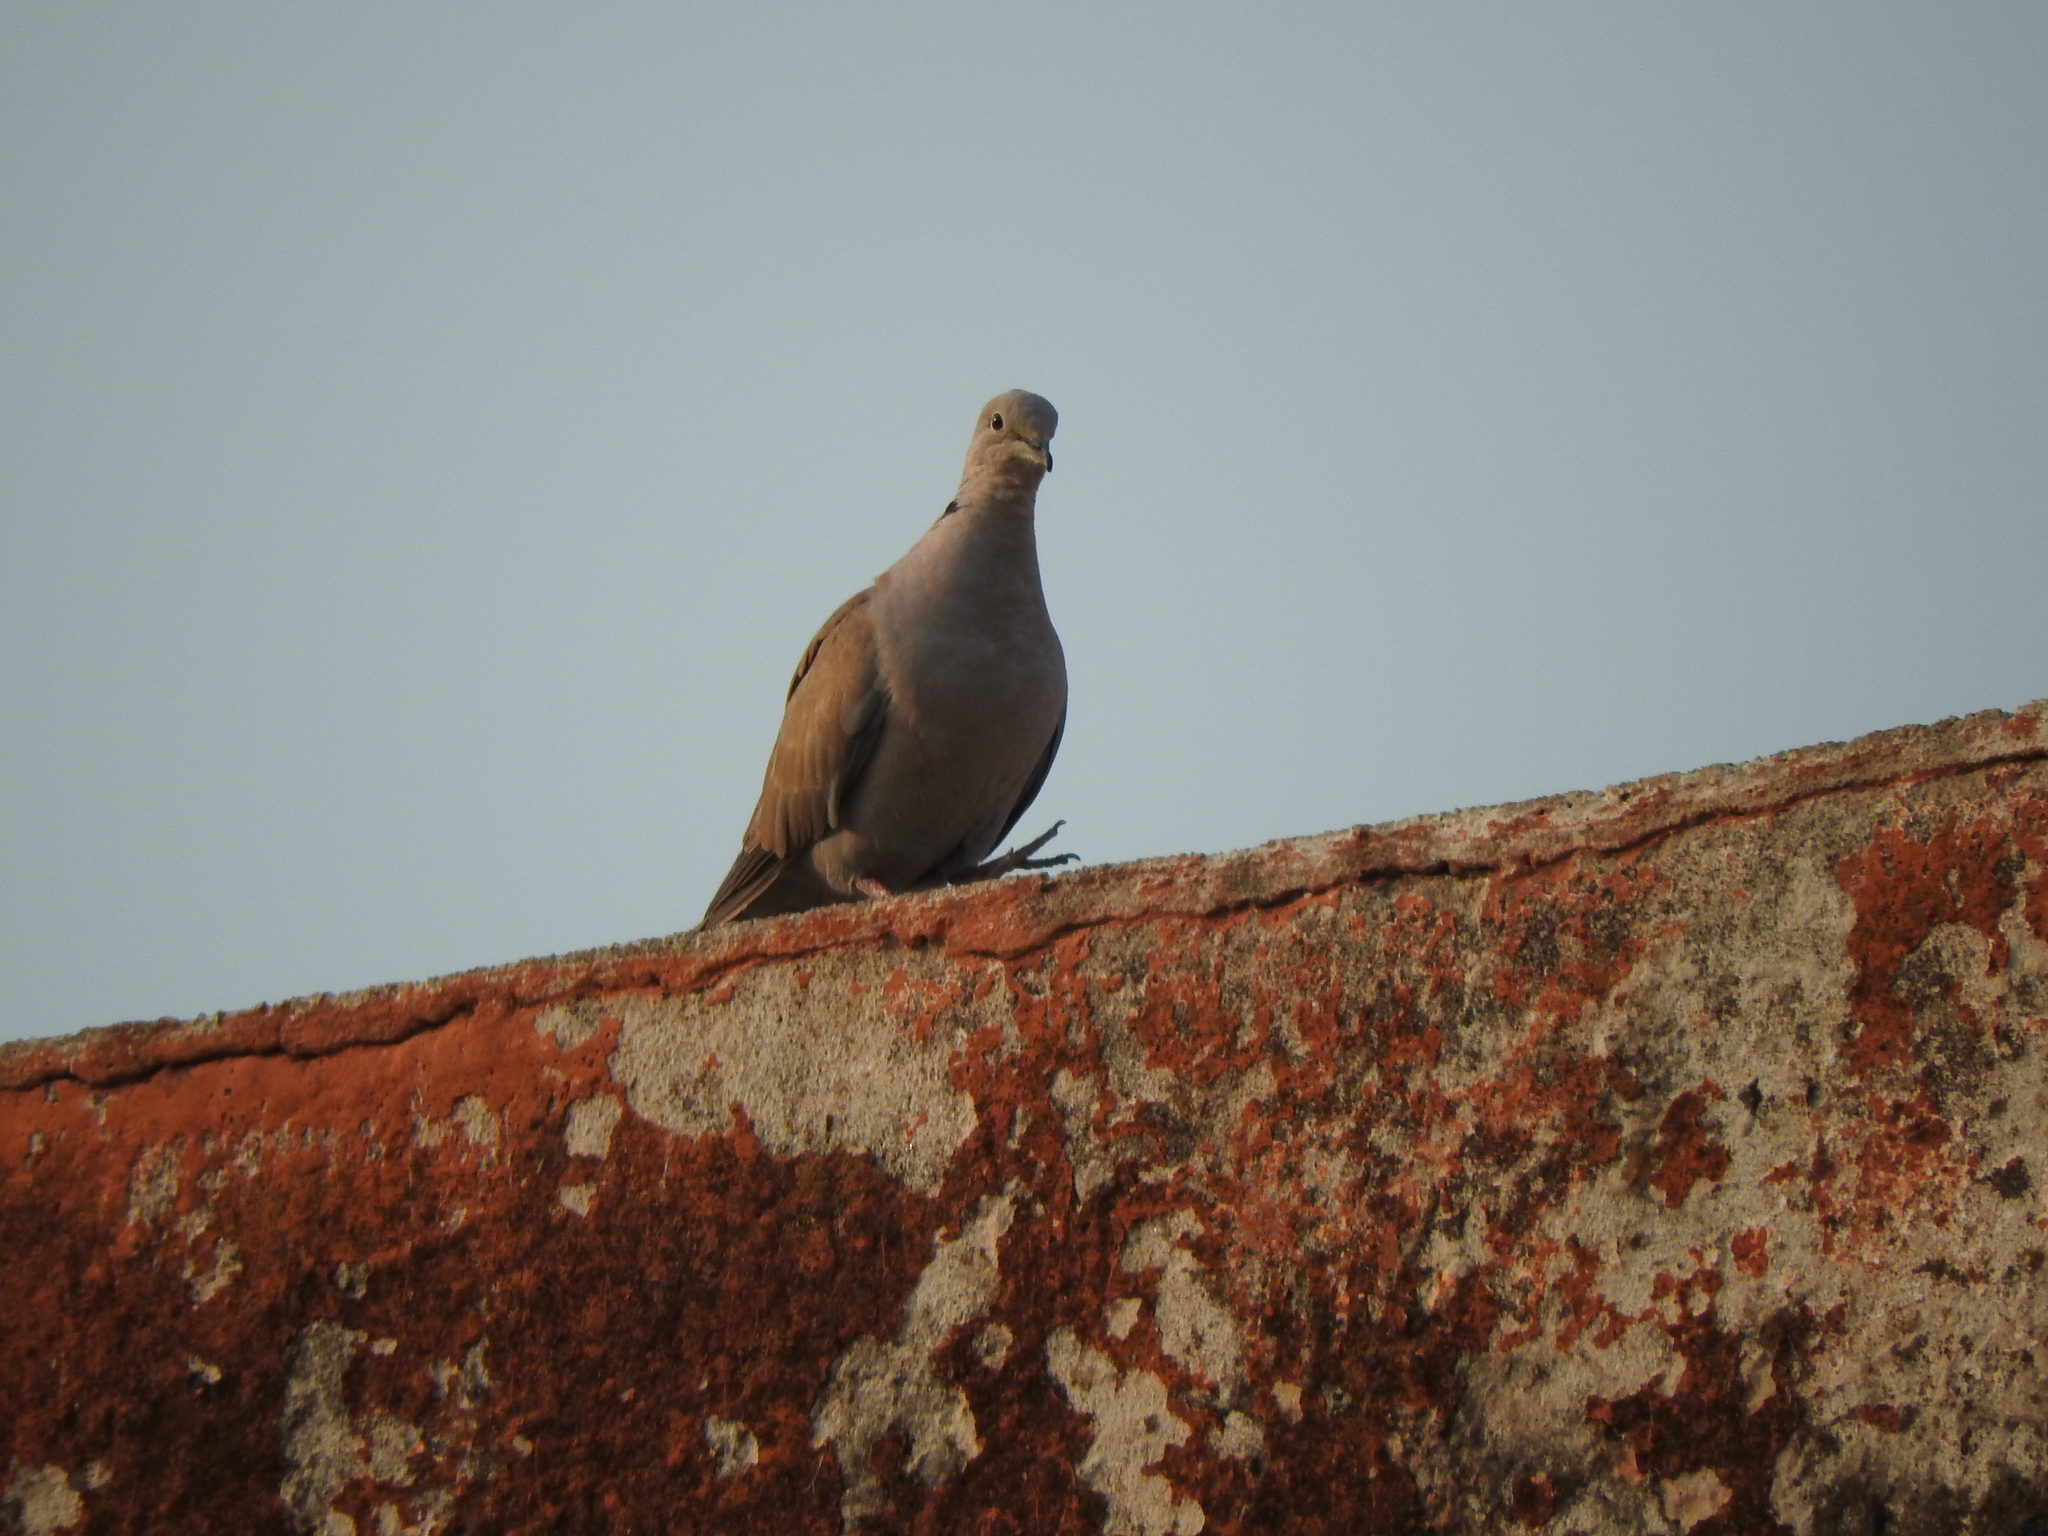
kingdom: Animalia
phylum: Chordata
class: Aves
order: Columbiformes
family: Columbidae
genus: Streptopelia
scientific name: Streptopelia decaocto
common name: Eurasian collared dove
